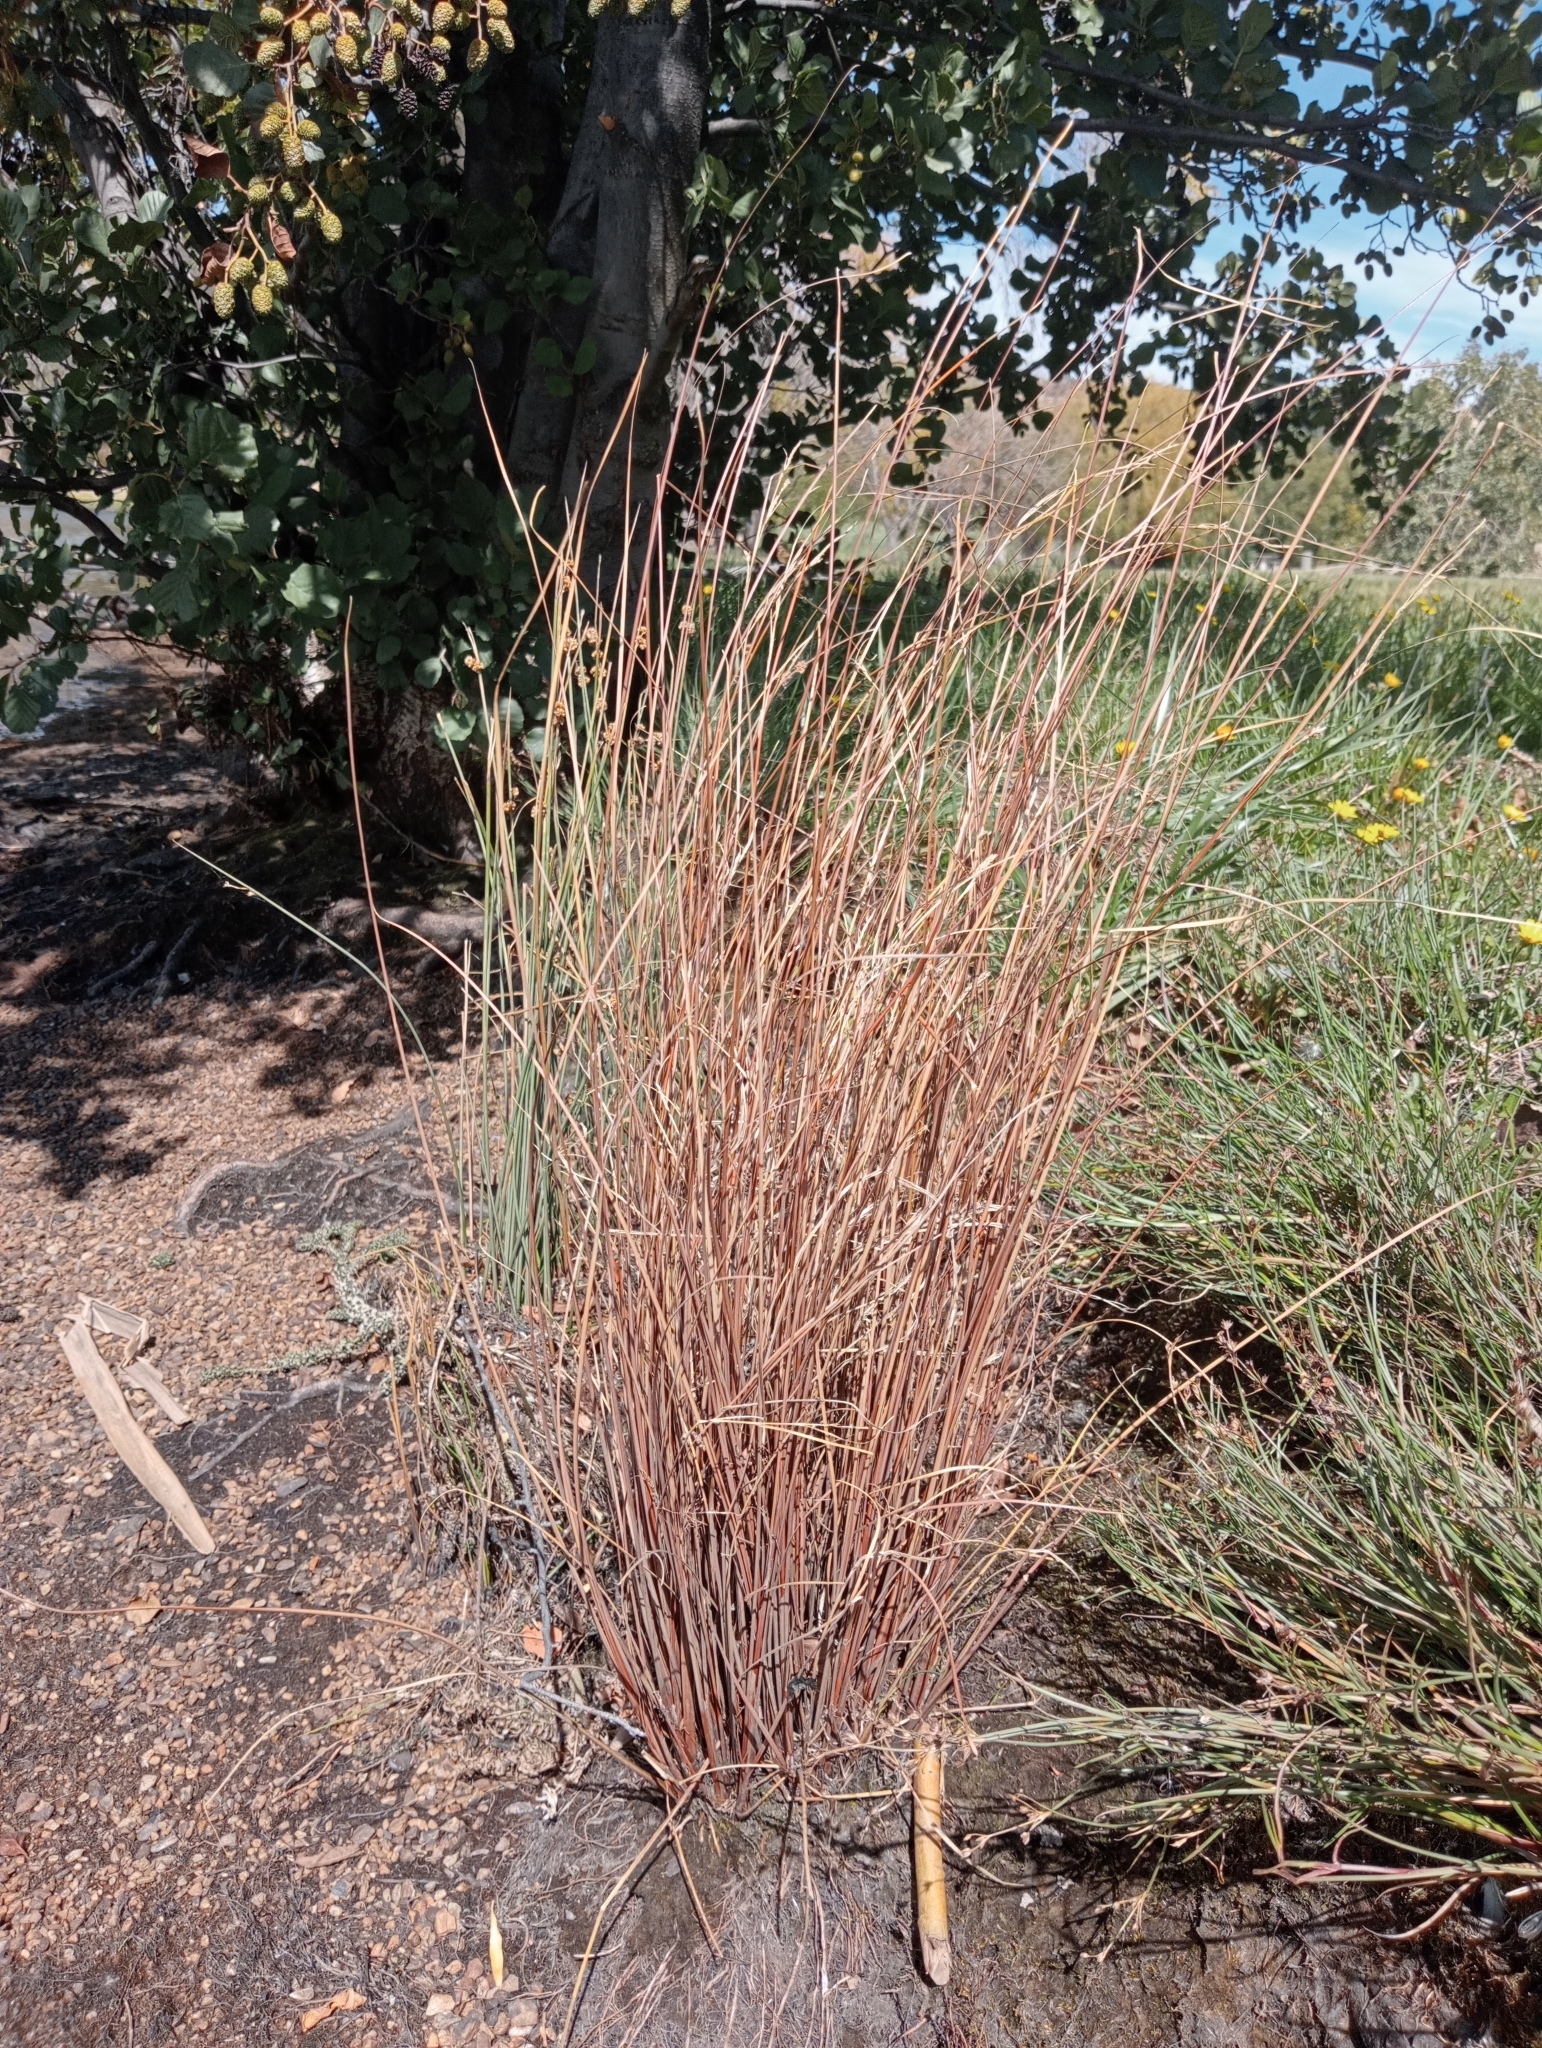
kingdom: Plantae
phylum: Tracheophyta
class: Liliopsida
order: Poales
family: Cyperaceae
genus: Carex
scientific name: Carex buchananii
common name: Leatherleaf sedge
